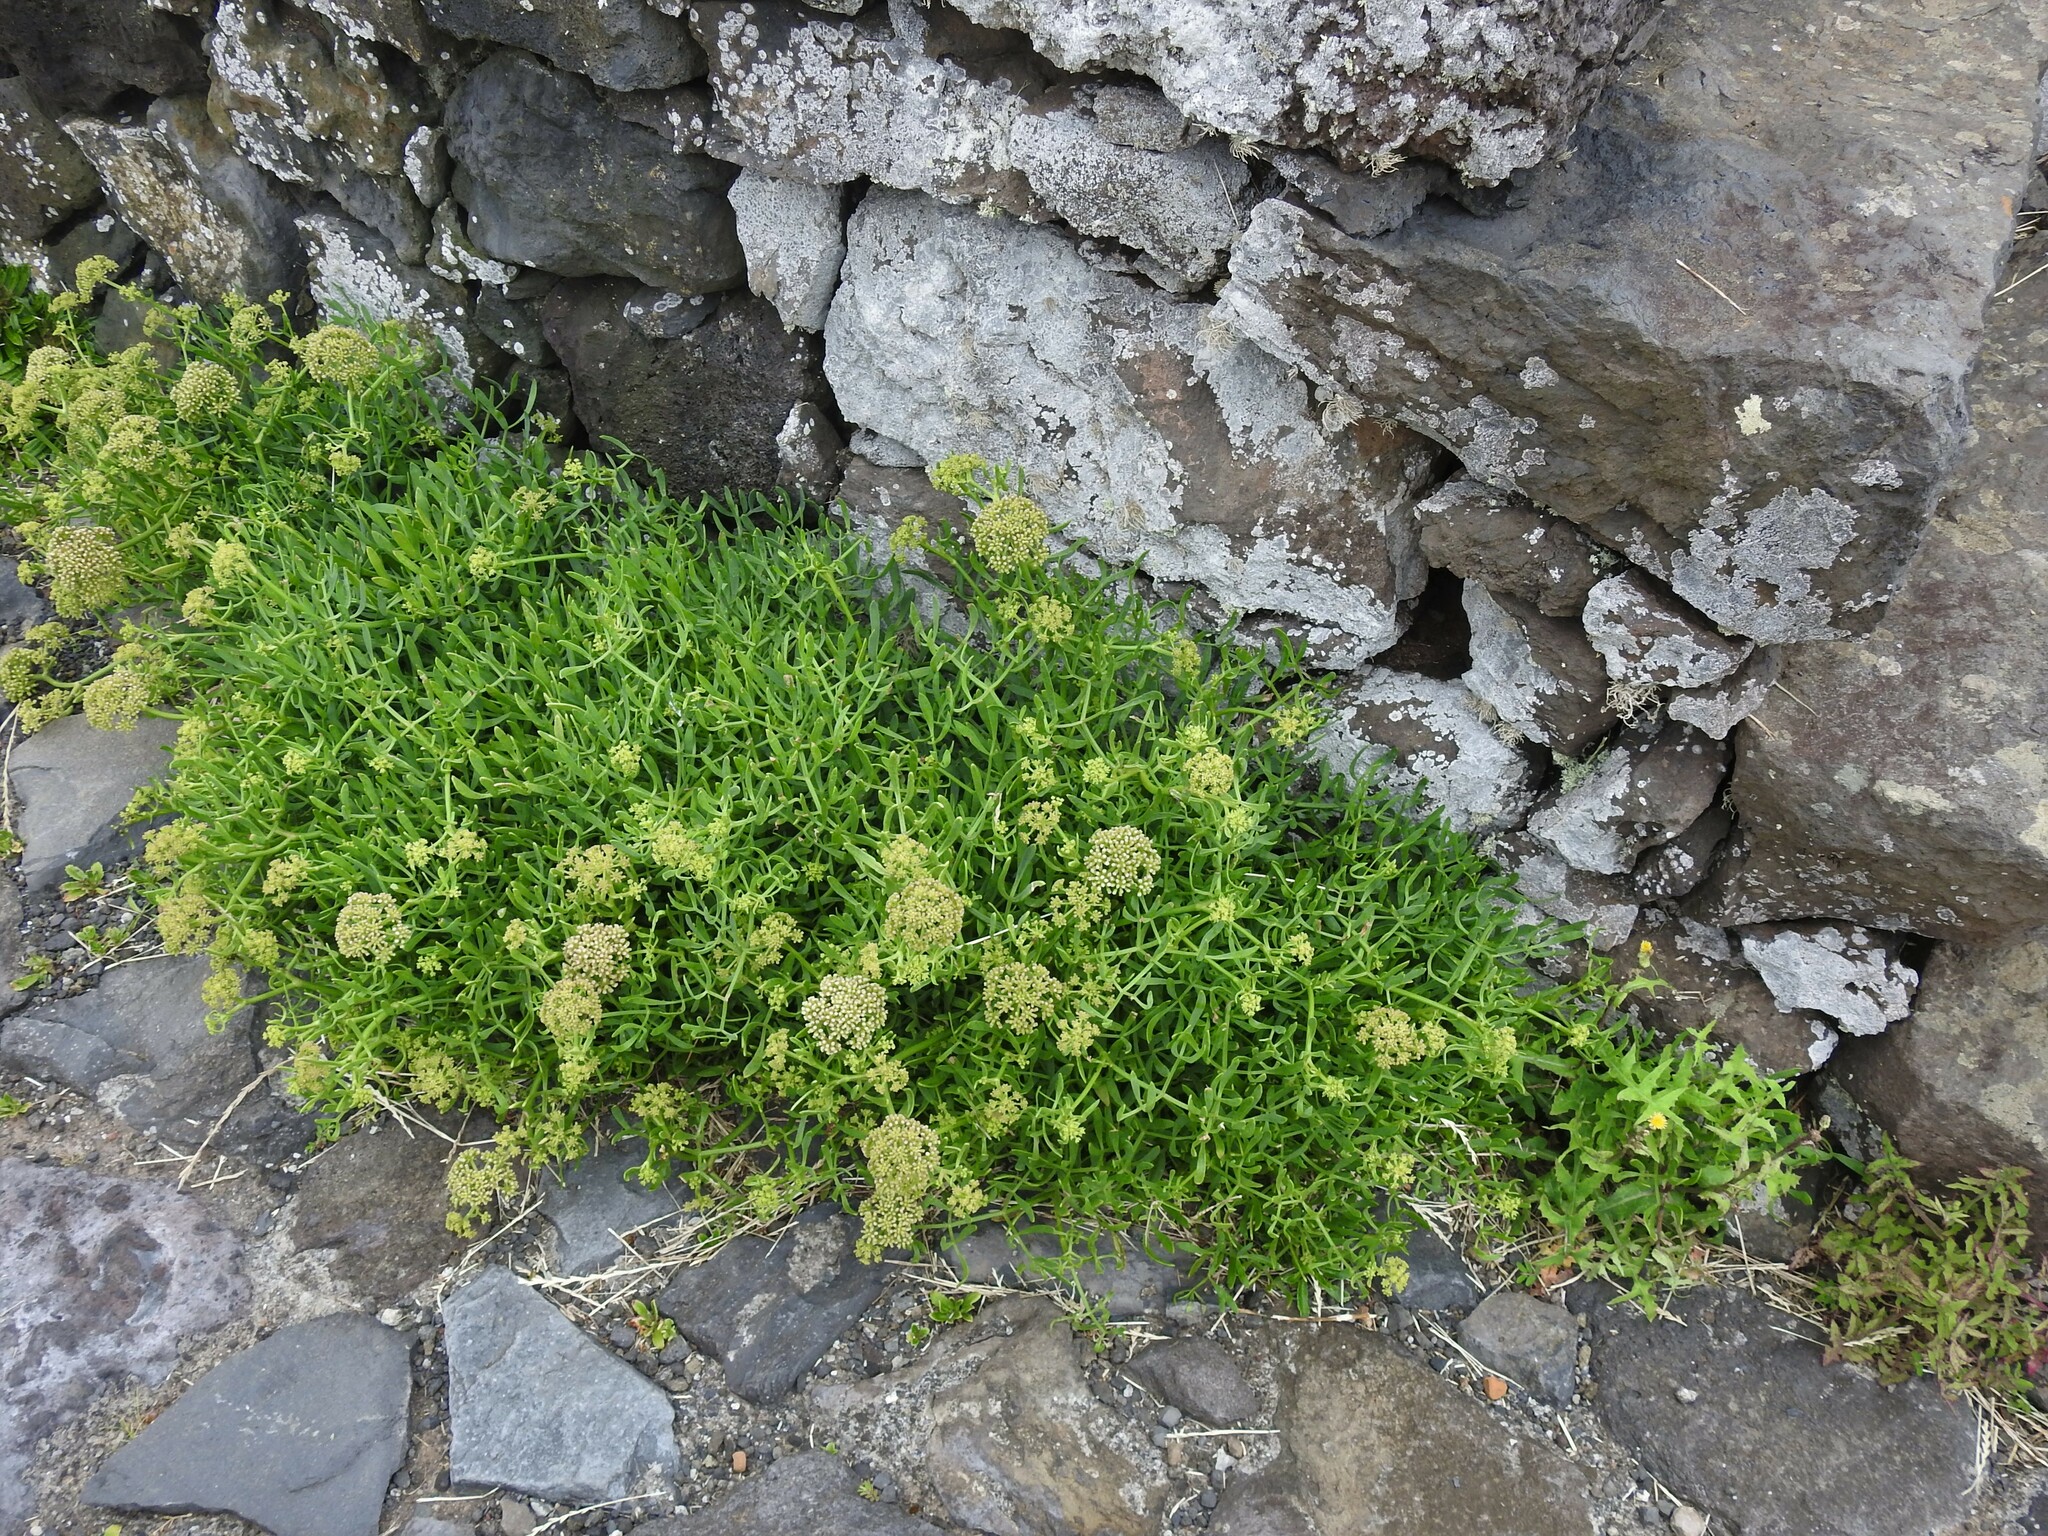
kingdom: Plantae
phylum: Tracheophyta
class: Magnoliopsida
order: Apiales
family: Apiaceae
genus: Crithmum
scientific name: Crithmum maritimum
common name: Rock samphire
